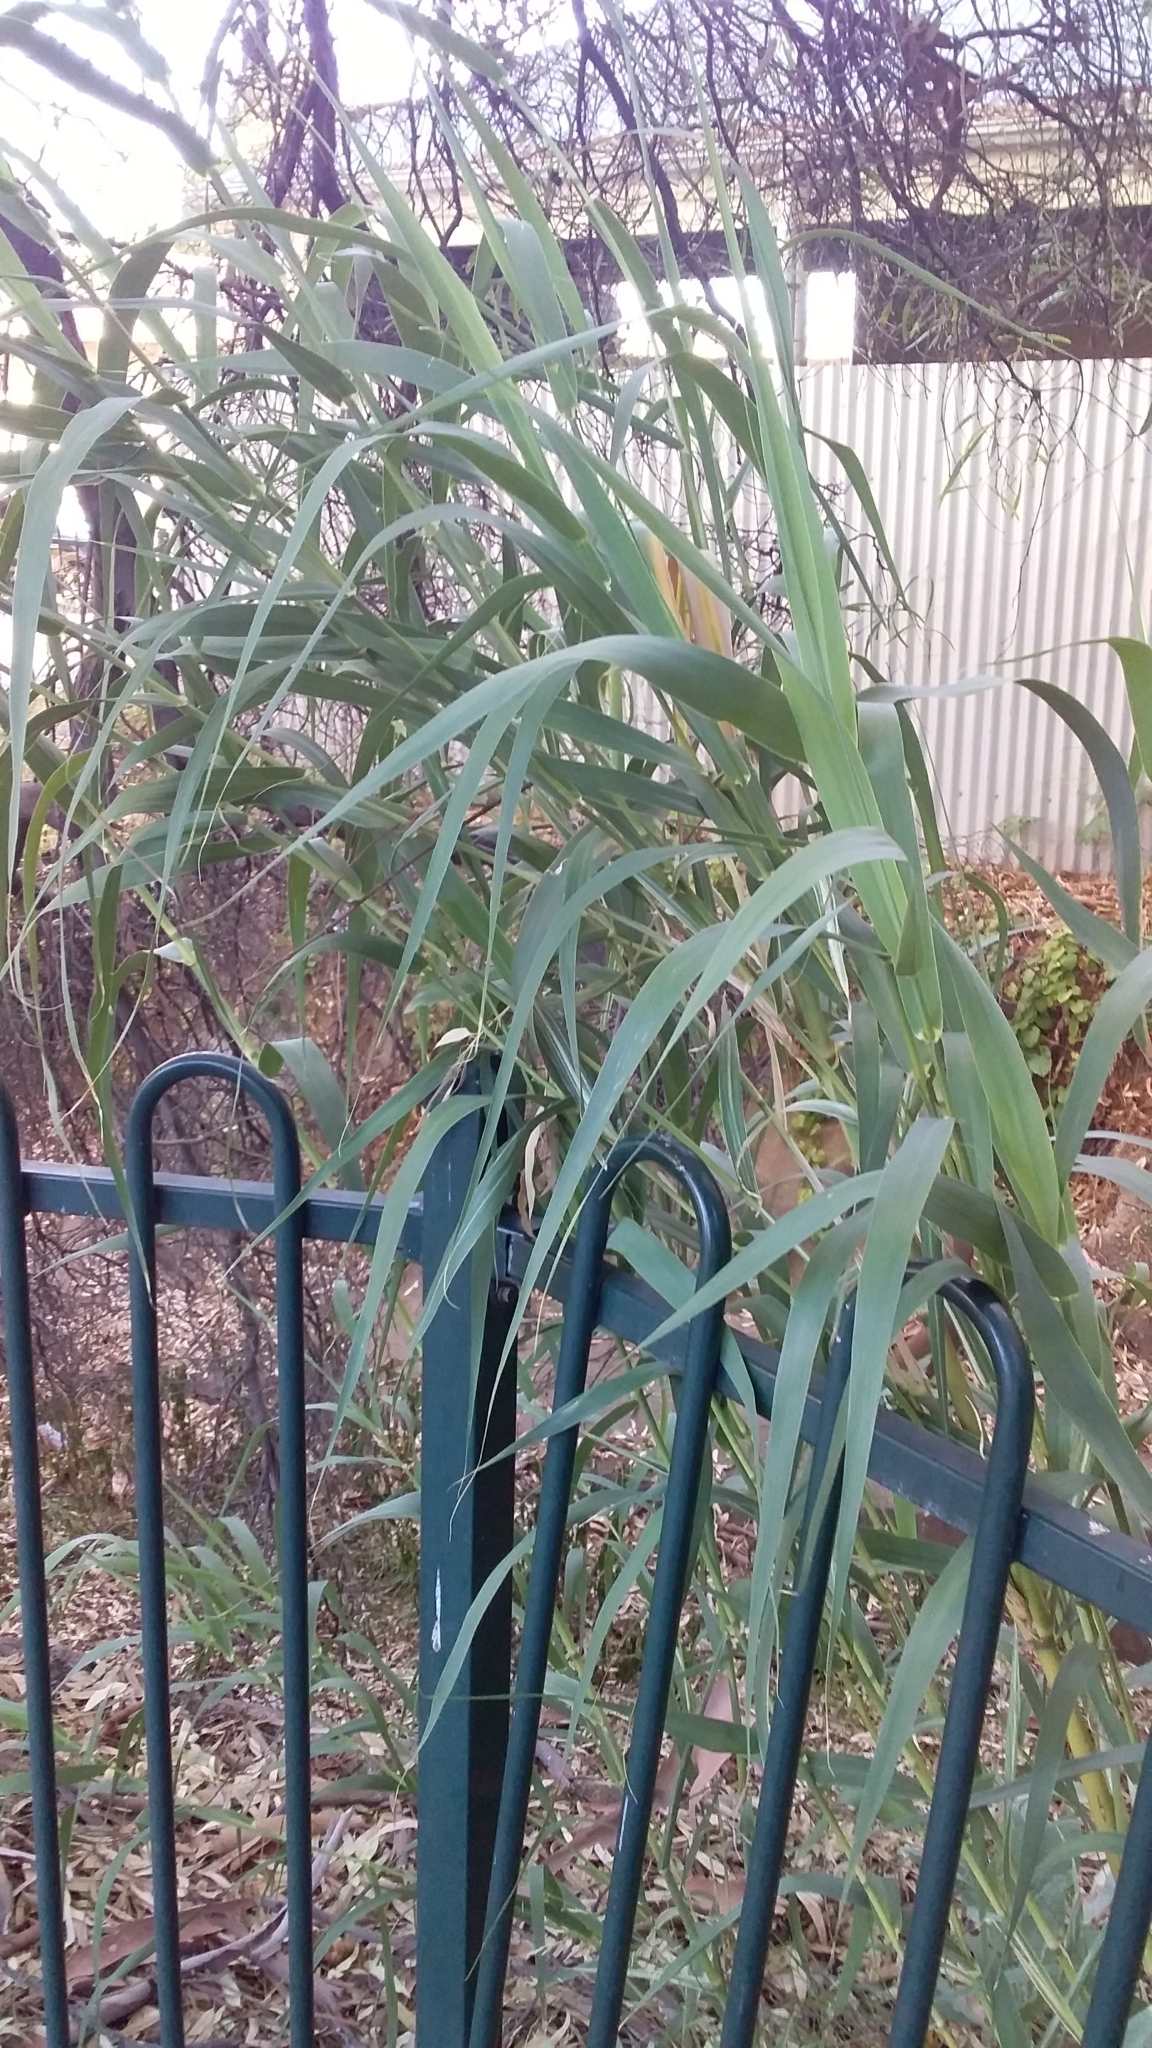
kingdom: Plantae
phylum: Tracheophyta
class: Liliopsida
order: Poales
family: Poaceae
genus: Arundo
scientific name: Arundo donax
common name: Giant reed
